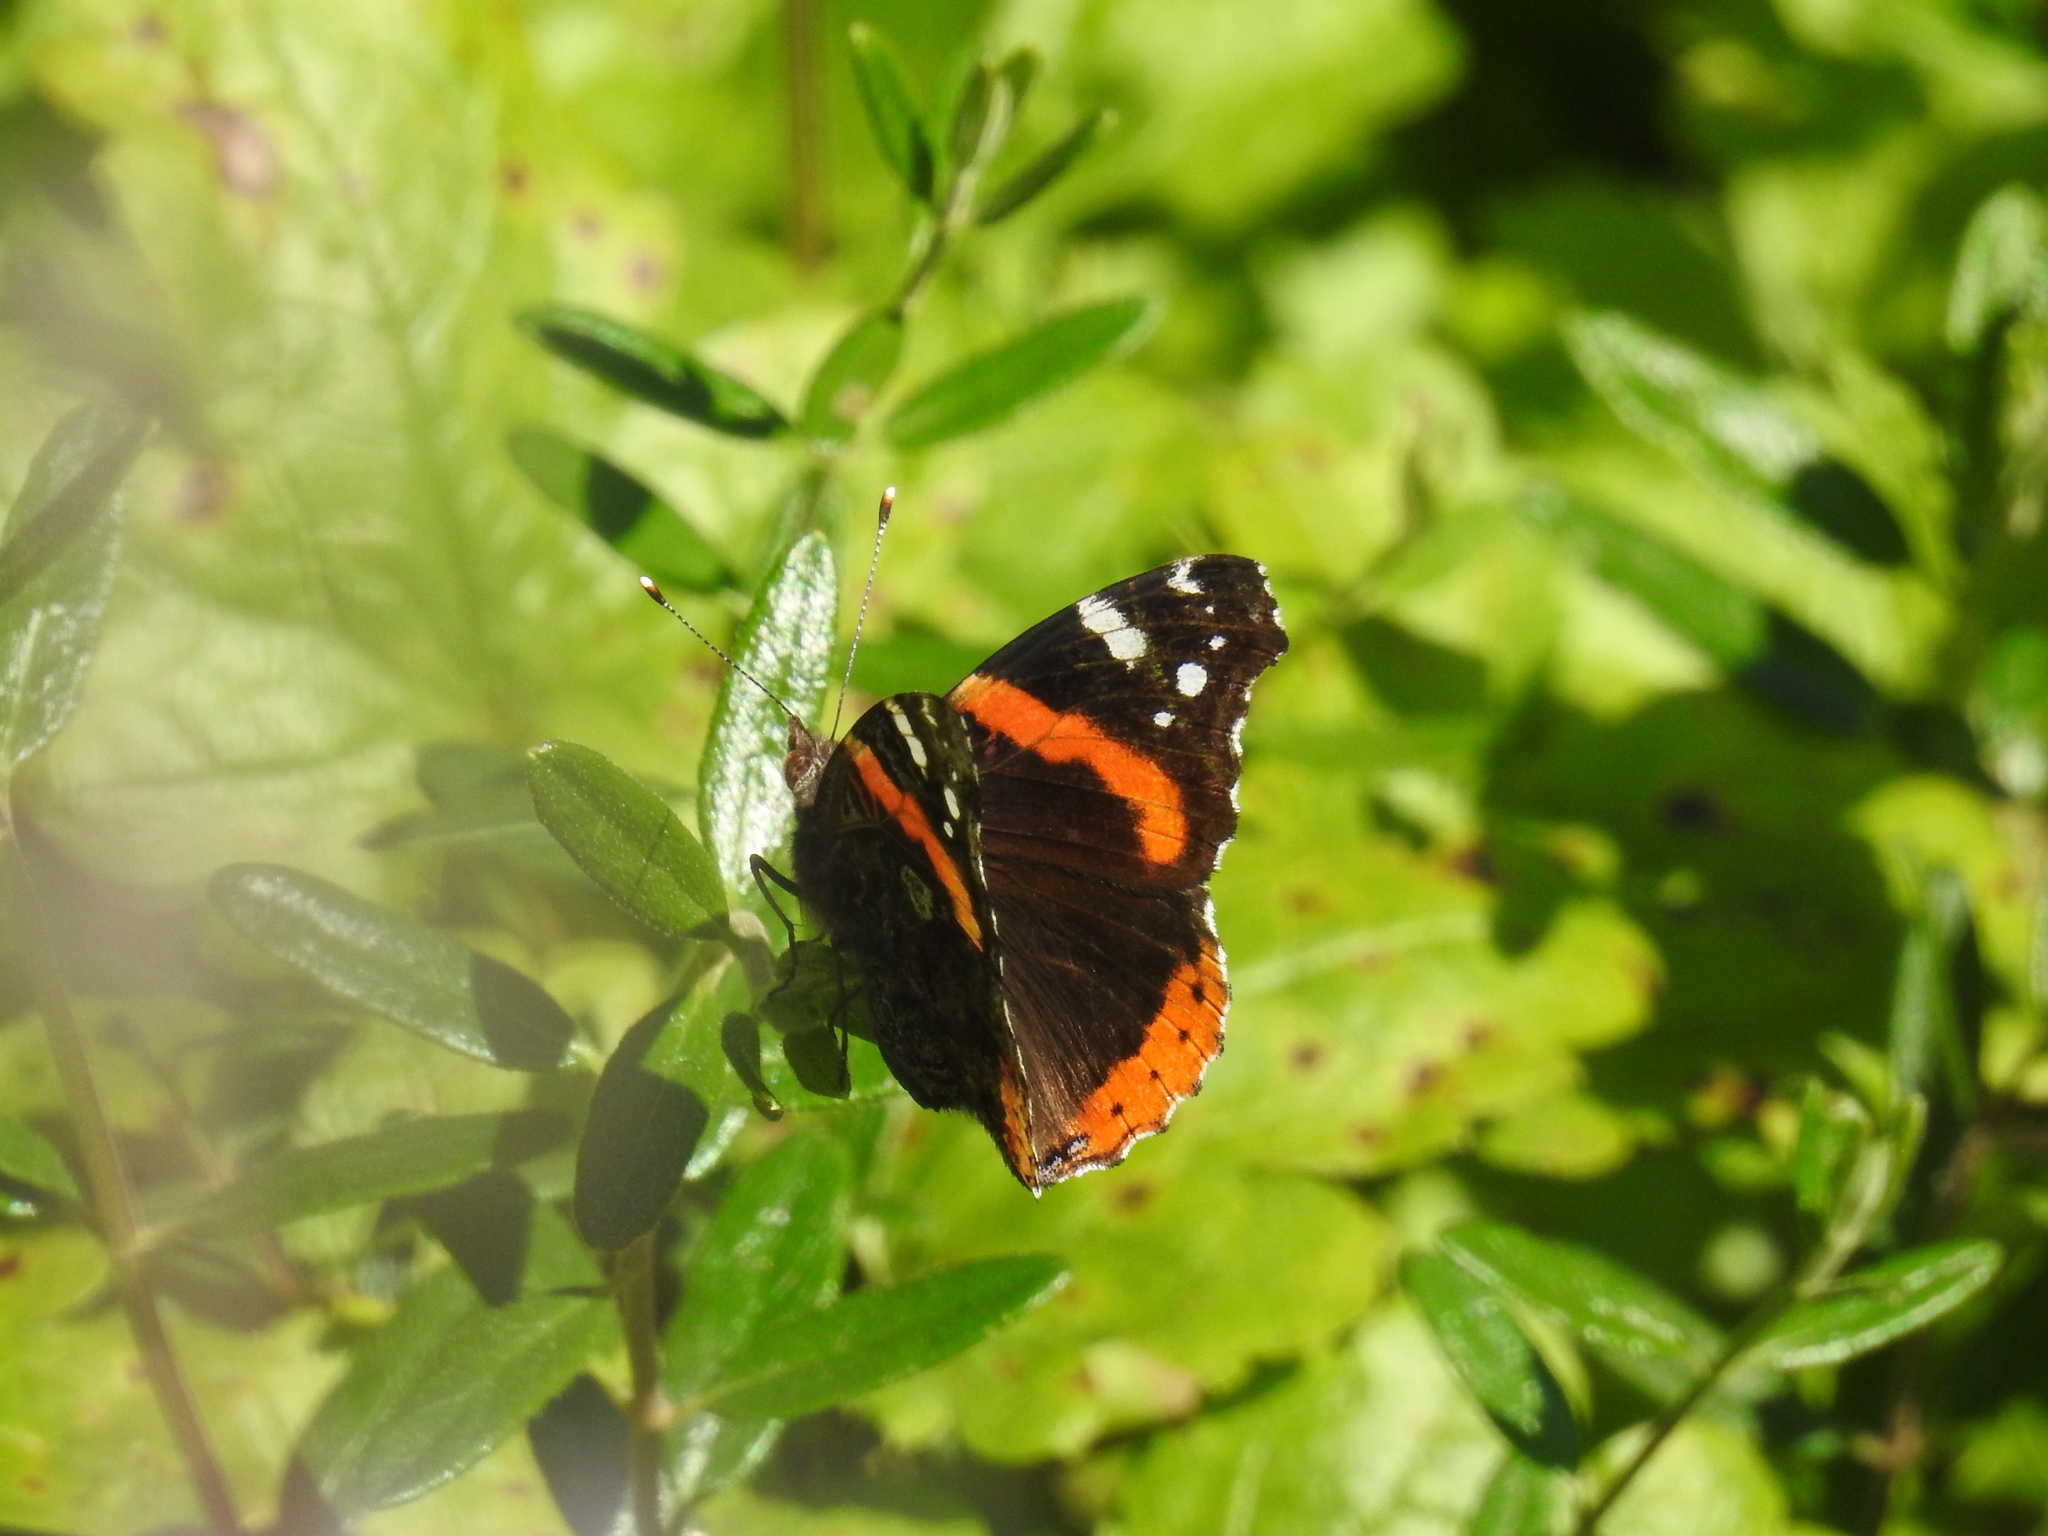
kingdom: Animalia
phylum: Arthropoda
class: Insecta
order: Lepidoptera
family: Nymphalidae
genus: Vanessa
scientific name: Vanessa atalanta
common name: Red admiral
